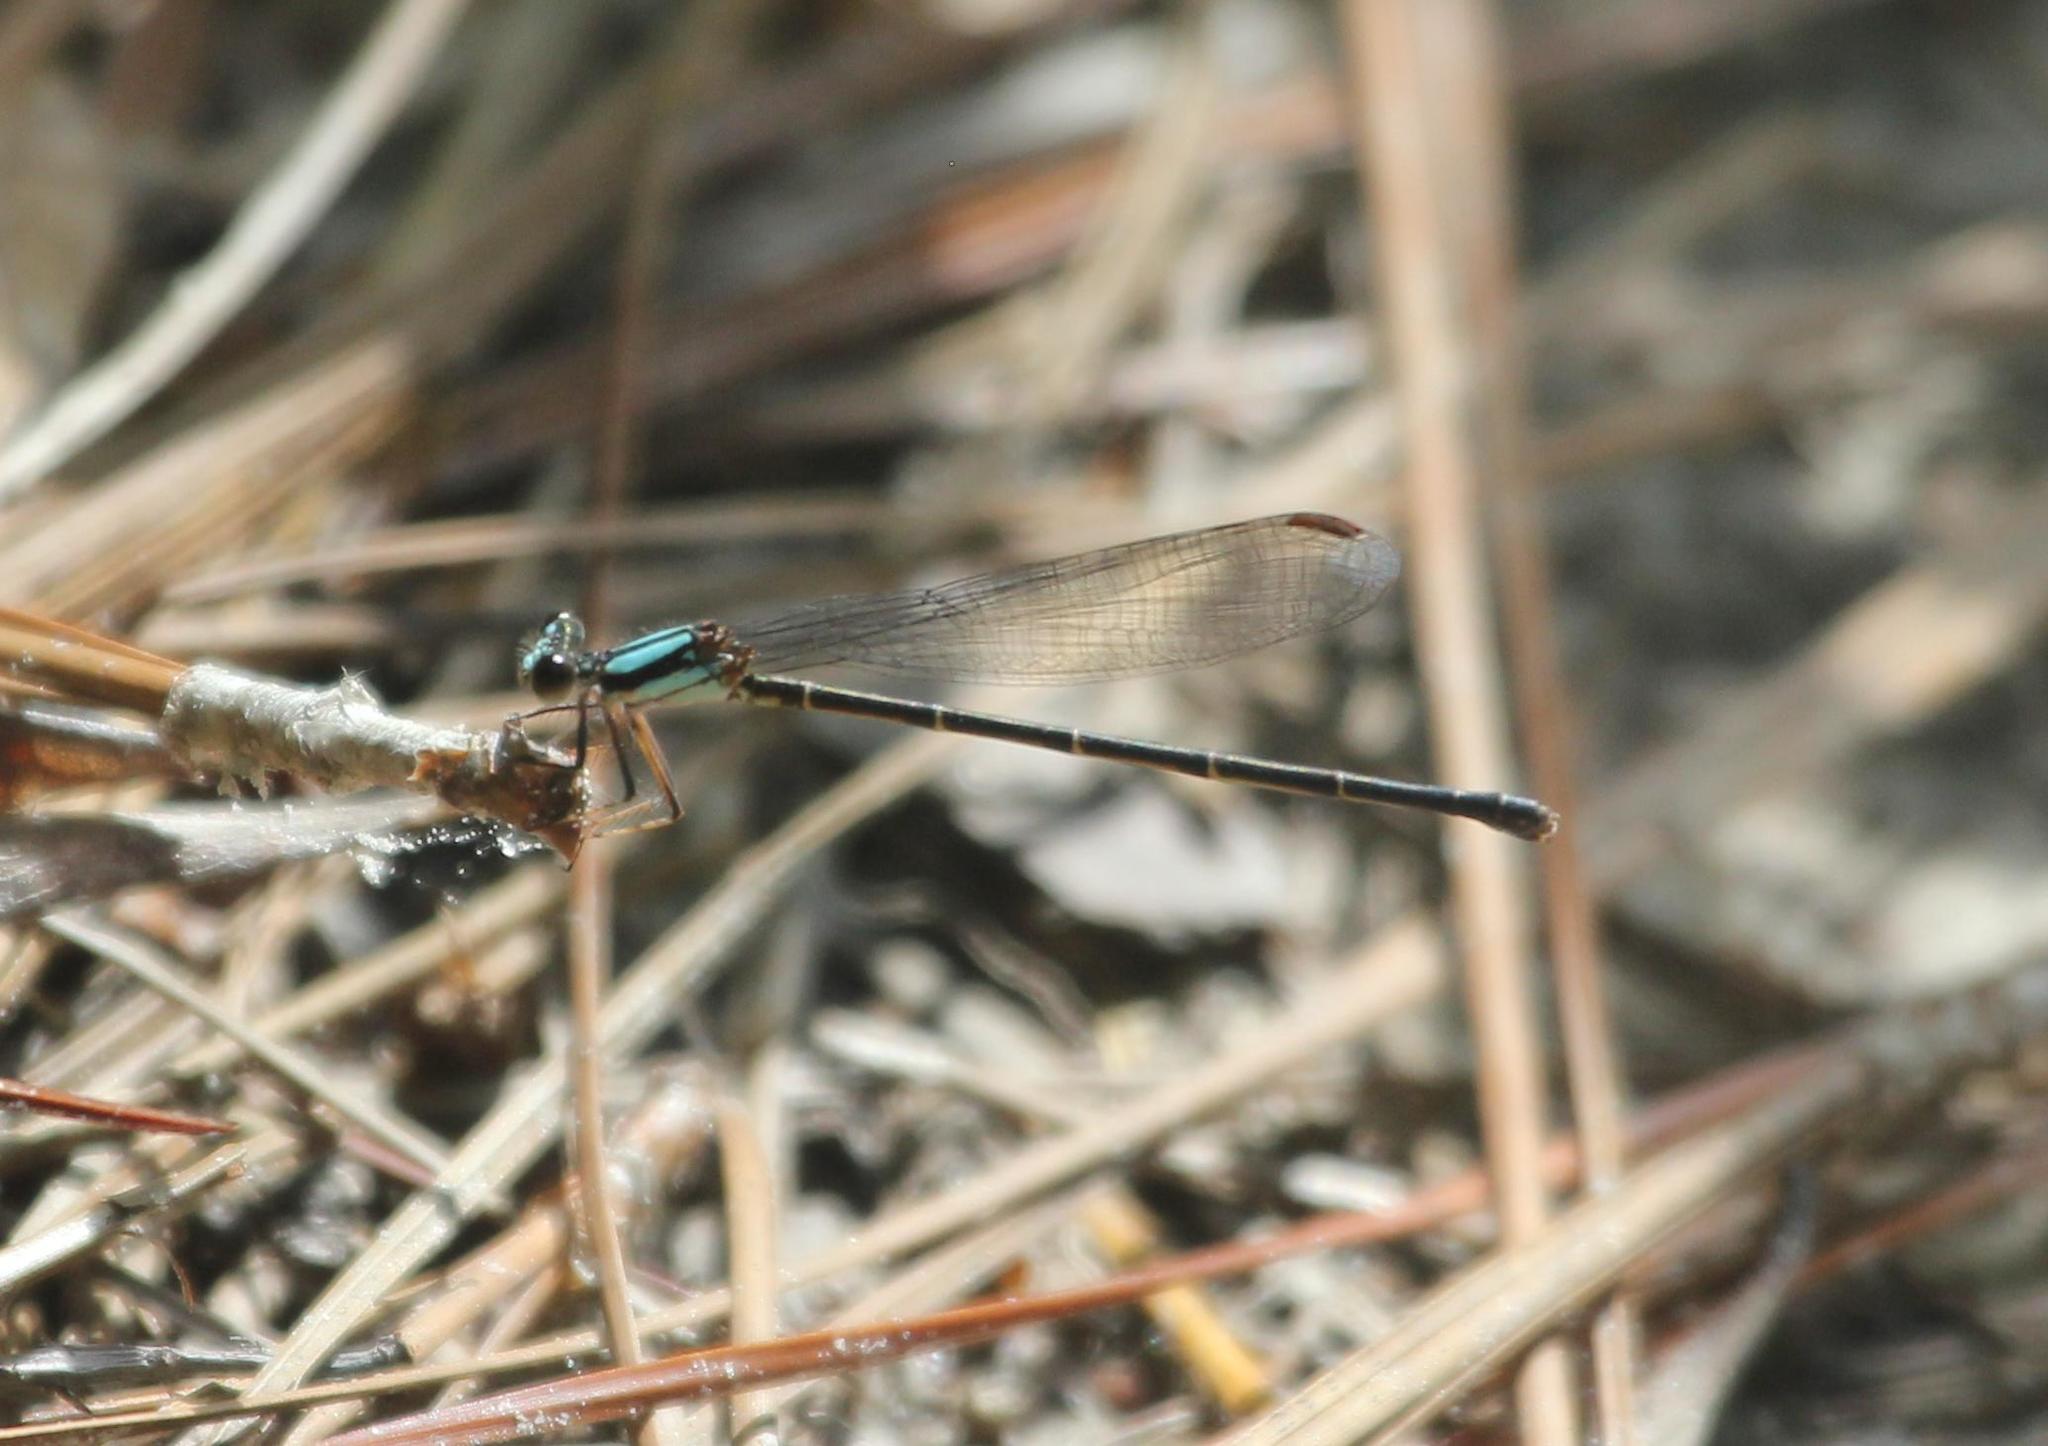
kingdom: Animalia
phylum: Arthropoda
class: Insecta
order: Odonata
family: Coenagrionidae
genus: Argia
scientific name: Argia tibialis
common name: Blue-tipped dancer
